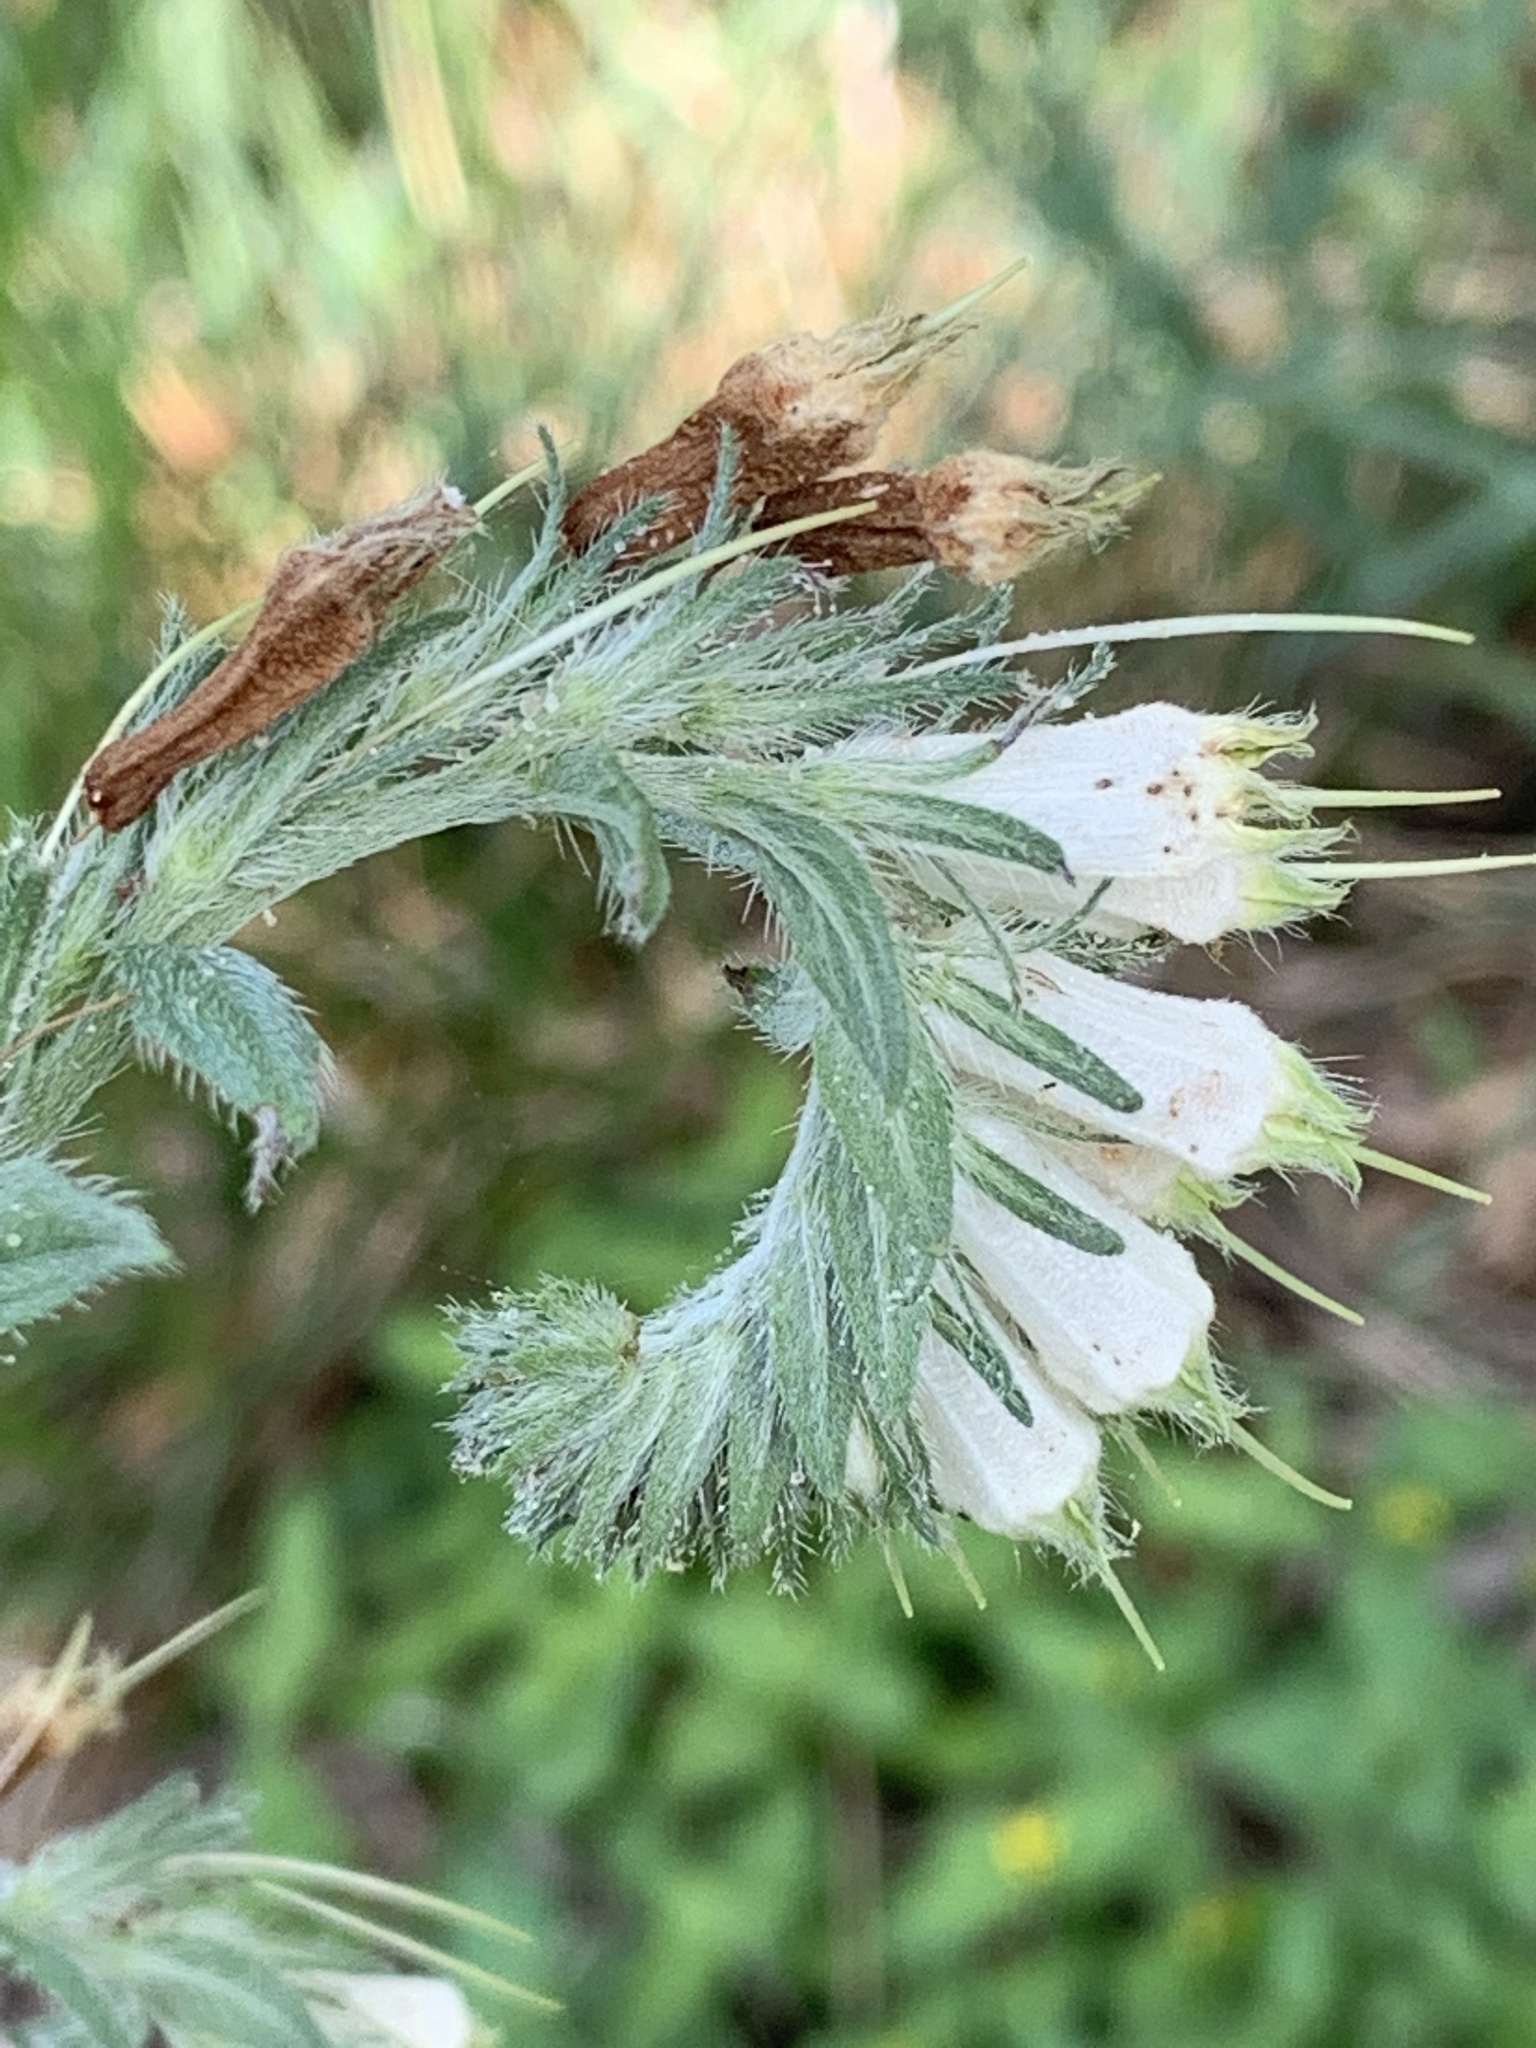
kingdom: Plantae
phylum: Tracheophyta
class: Magnoliopsida
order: Boraginales
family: Boraginaceae
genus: Lithospermum
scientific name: Lithospermum caroliniense
